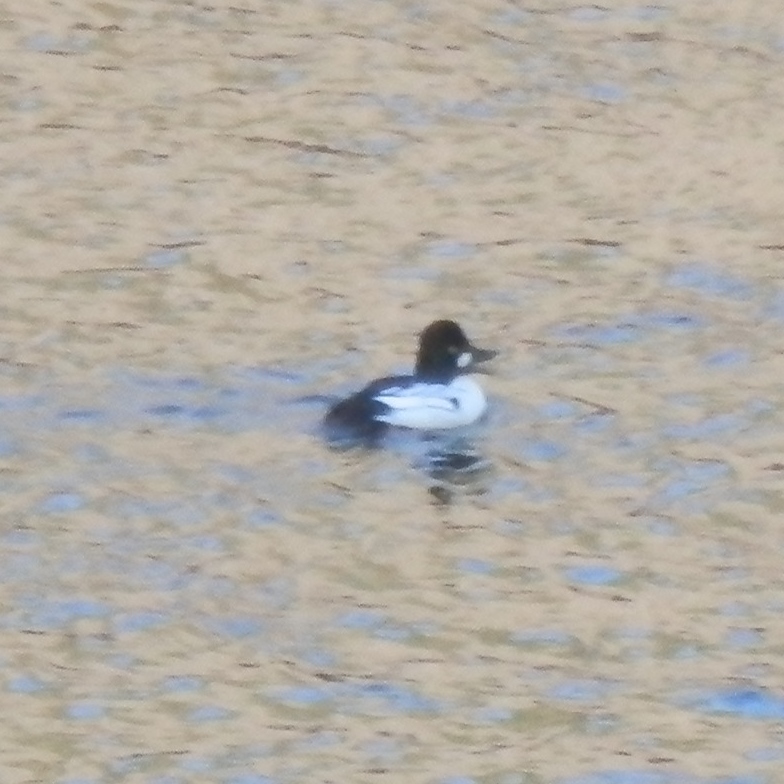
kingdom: Animalia
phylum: Chordata
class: Aves
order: Anseriformes
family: Anatidae
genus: Bucephala
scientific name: Bucephala clangula
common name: Common goldeneye
